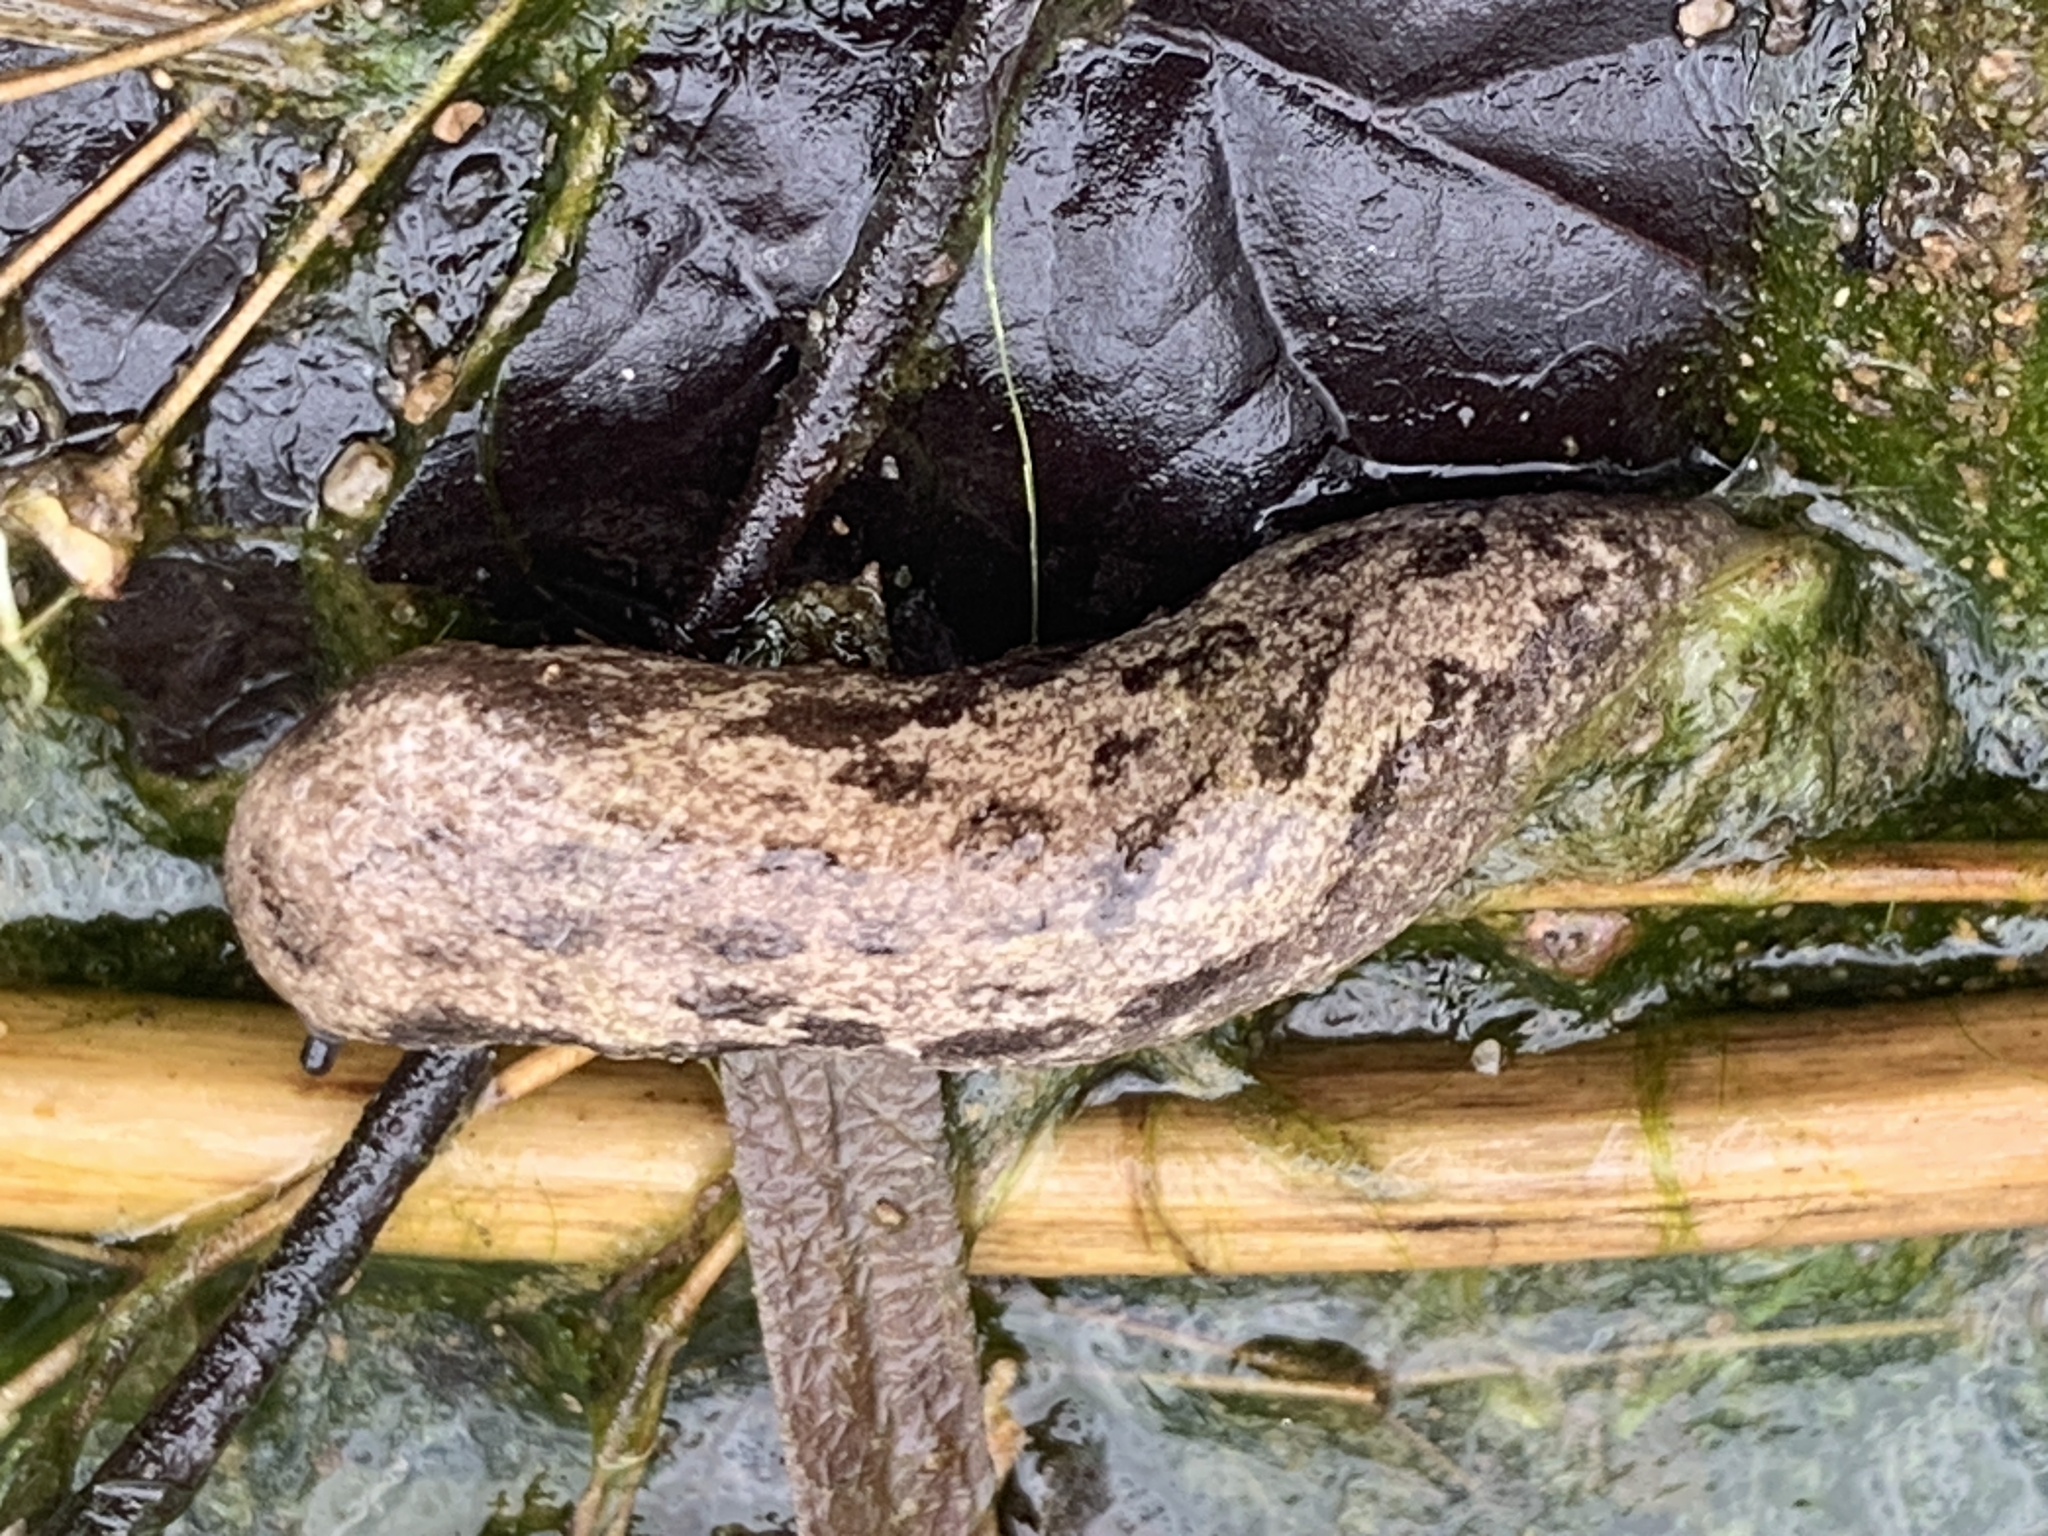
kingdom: Animalia
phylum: Mollusca
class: Gastropoda
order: Stylommatophora
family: Philomycidae
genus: Megapallifera
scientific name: Megapallifera mutabilis
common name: Changeable mantleslug
